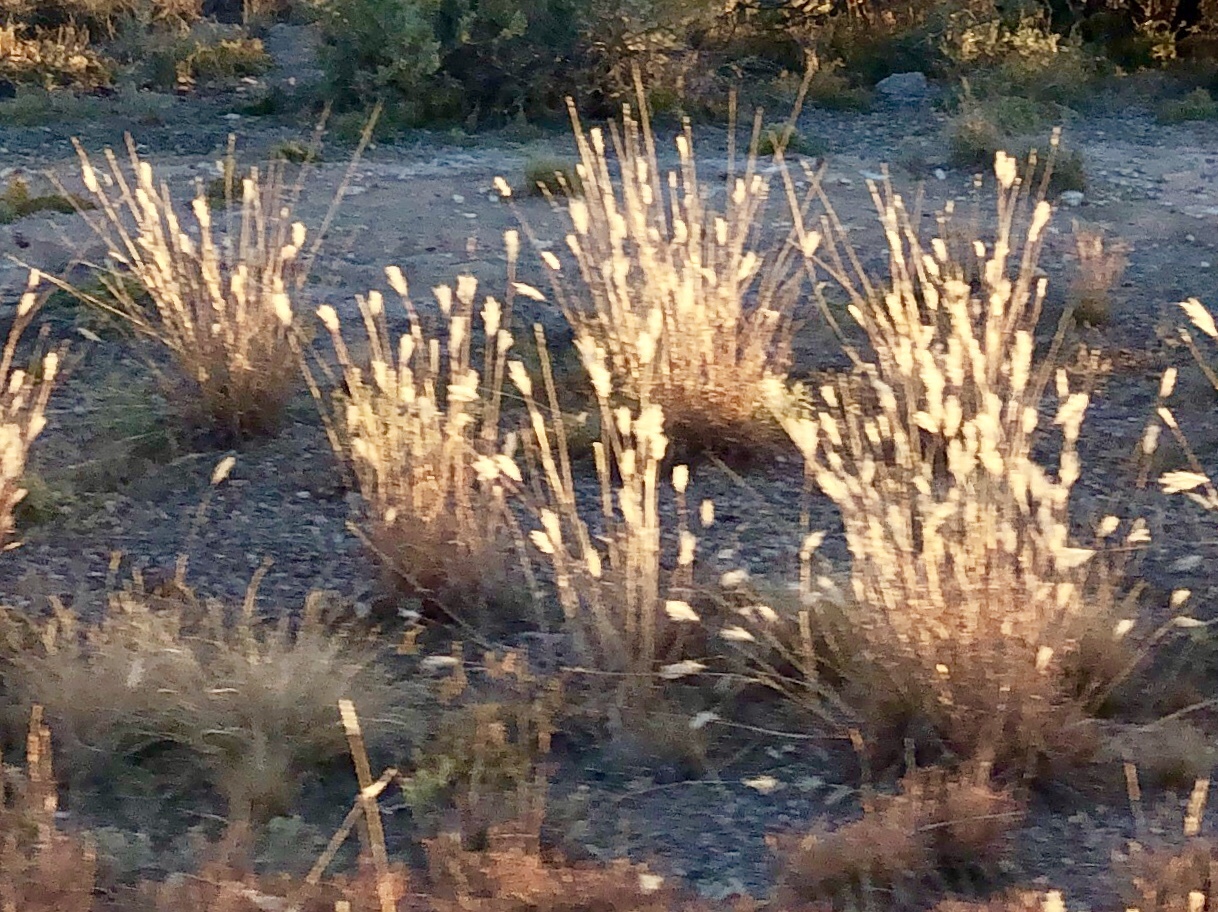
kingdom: Plantae
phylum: Tracheophyta
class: Liliopsida
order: Poales
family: Poaceae
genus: Bothriochloa
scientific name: Bothriochloa barbinodis
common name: Cane bluestem
